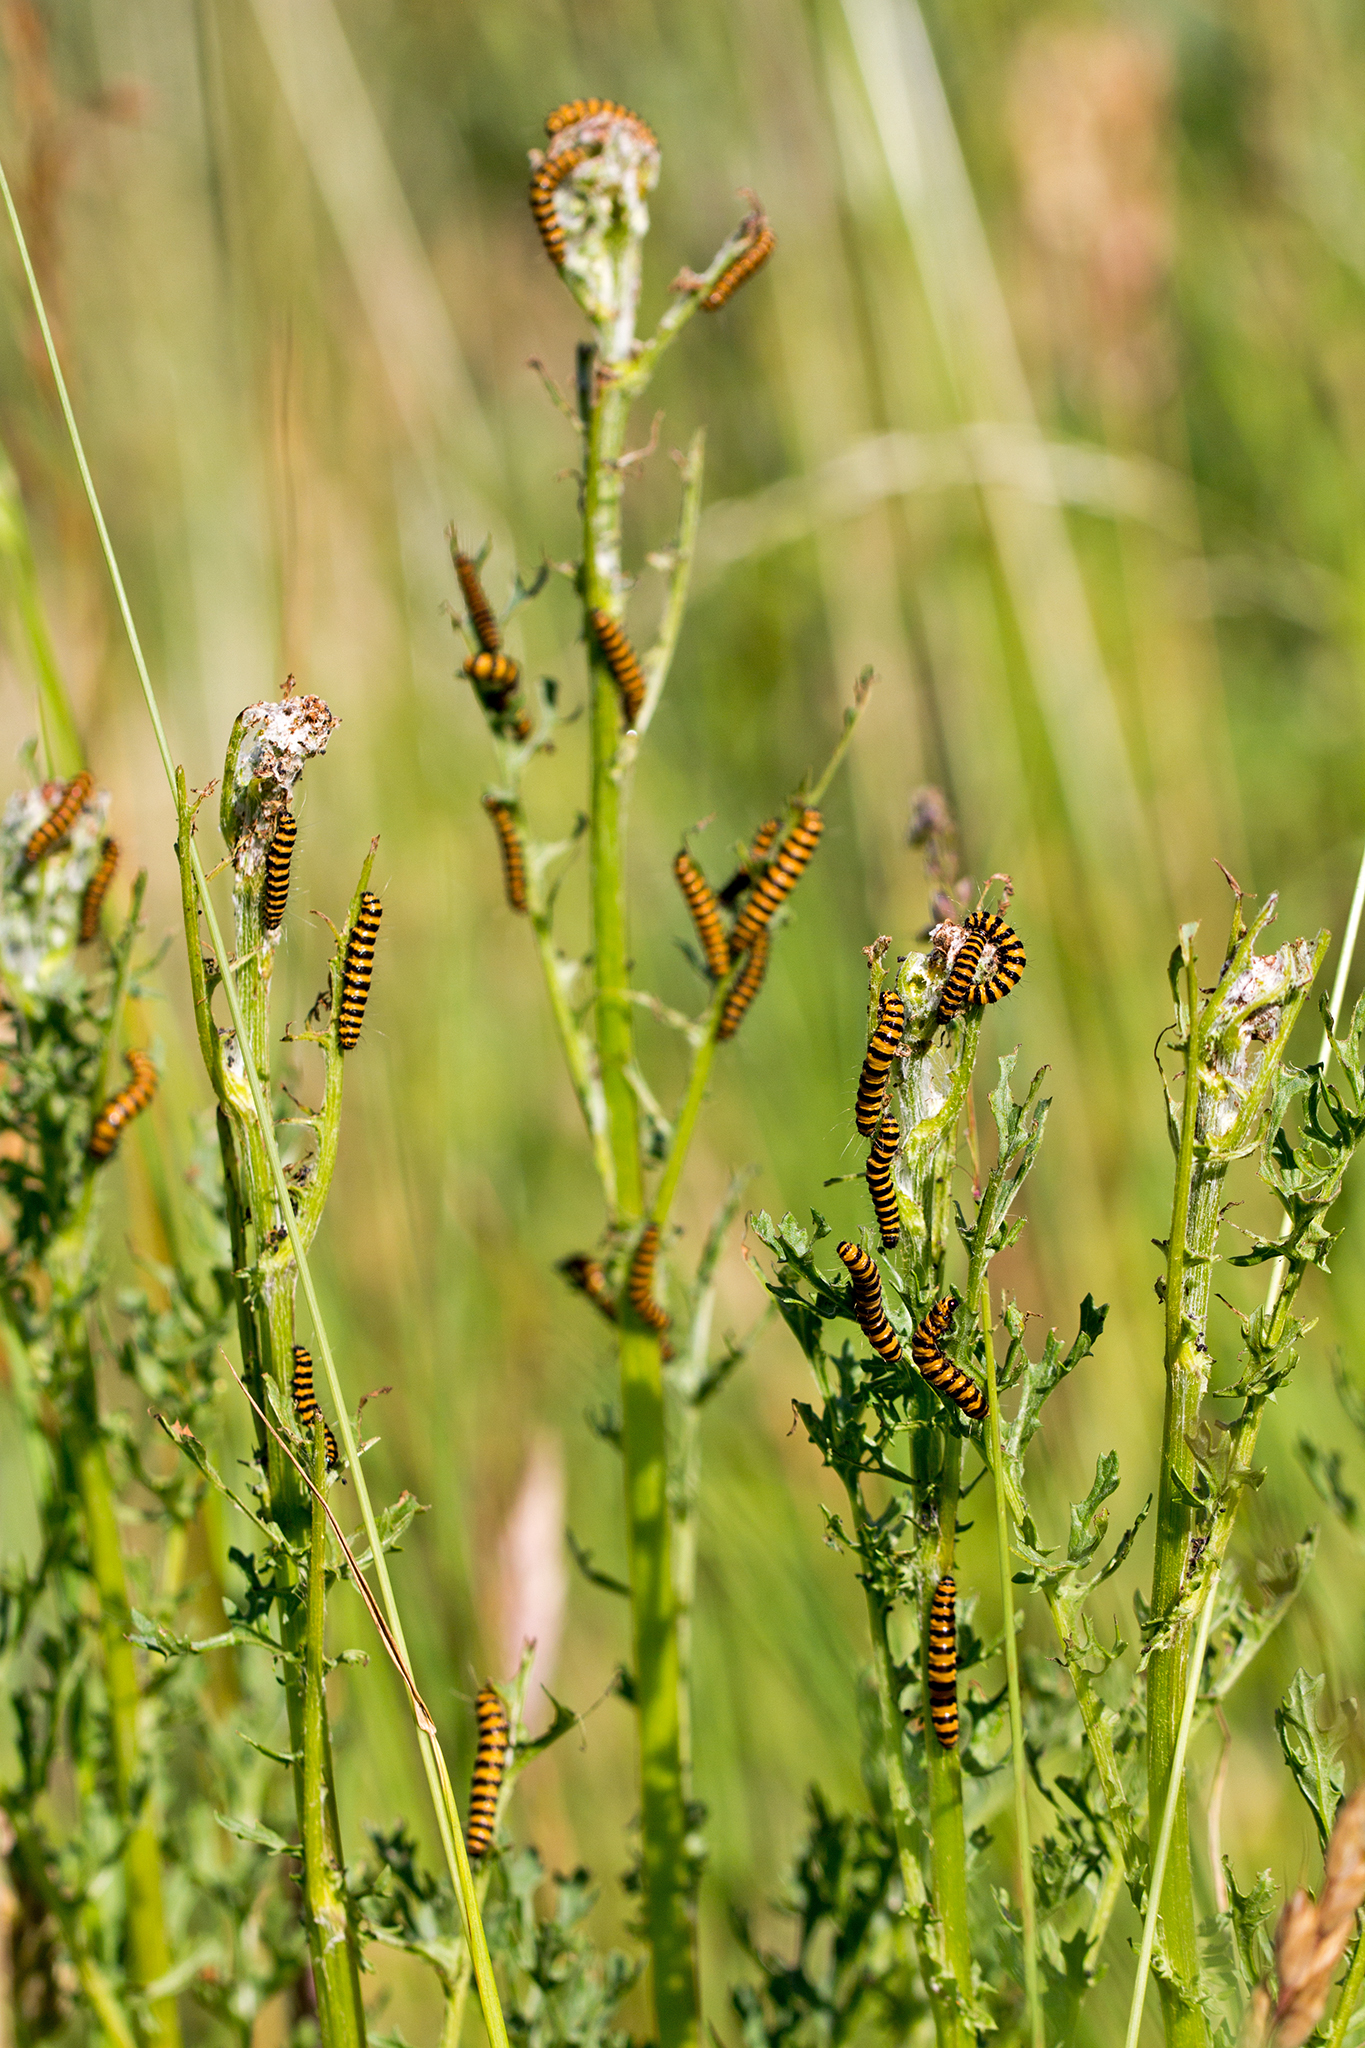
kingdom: Animalia
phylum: Arthropoda
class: Insecta
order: Lepidoptera
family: Erebidae
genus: Tyria
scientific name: Tyria jacobaeae
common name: Cinnabar
